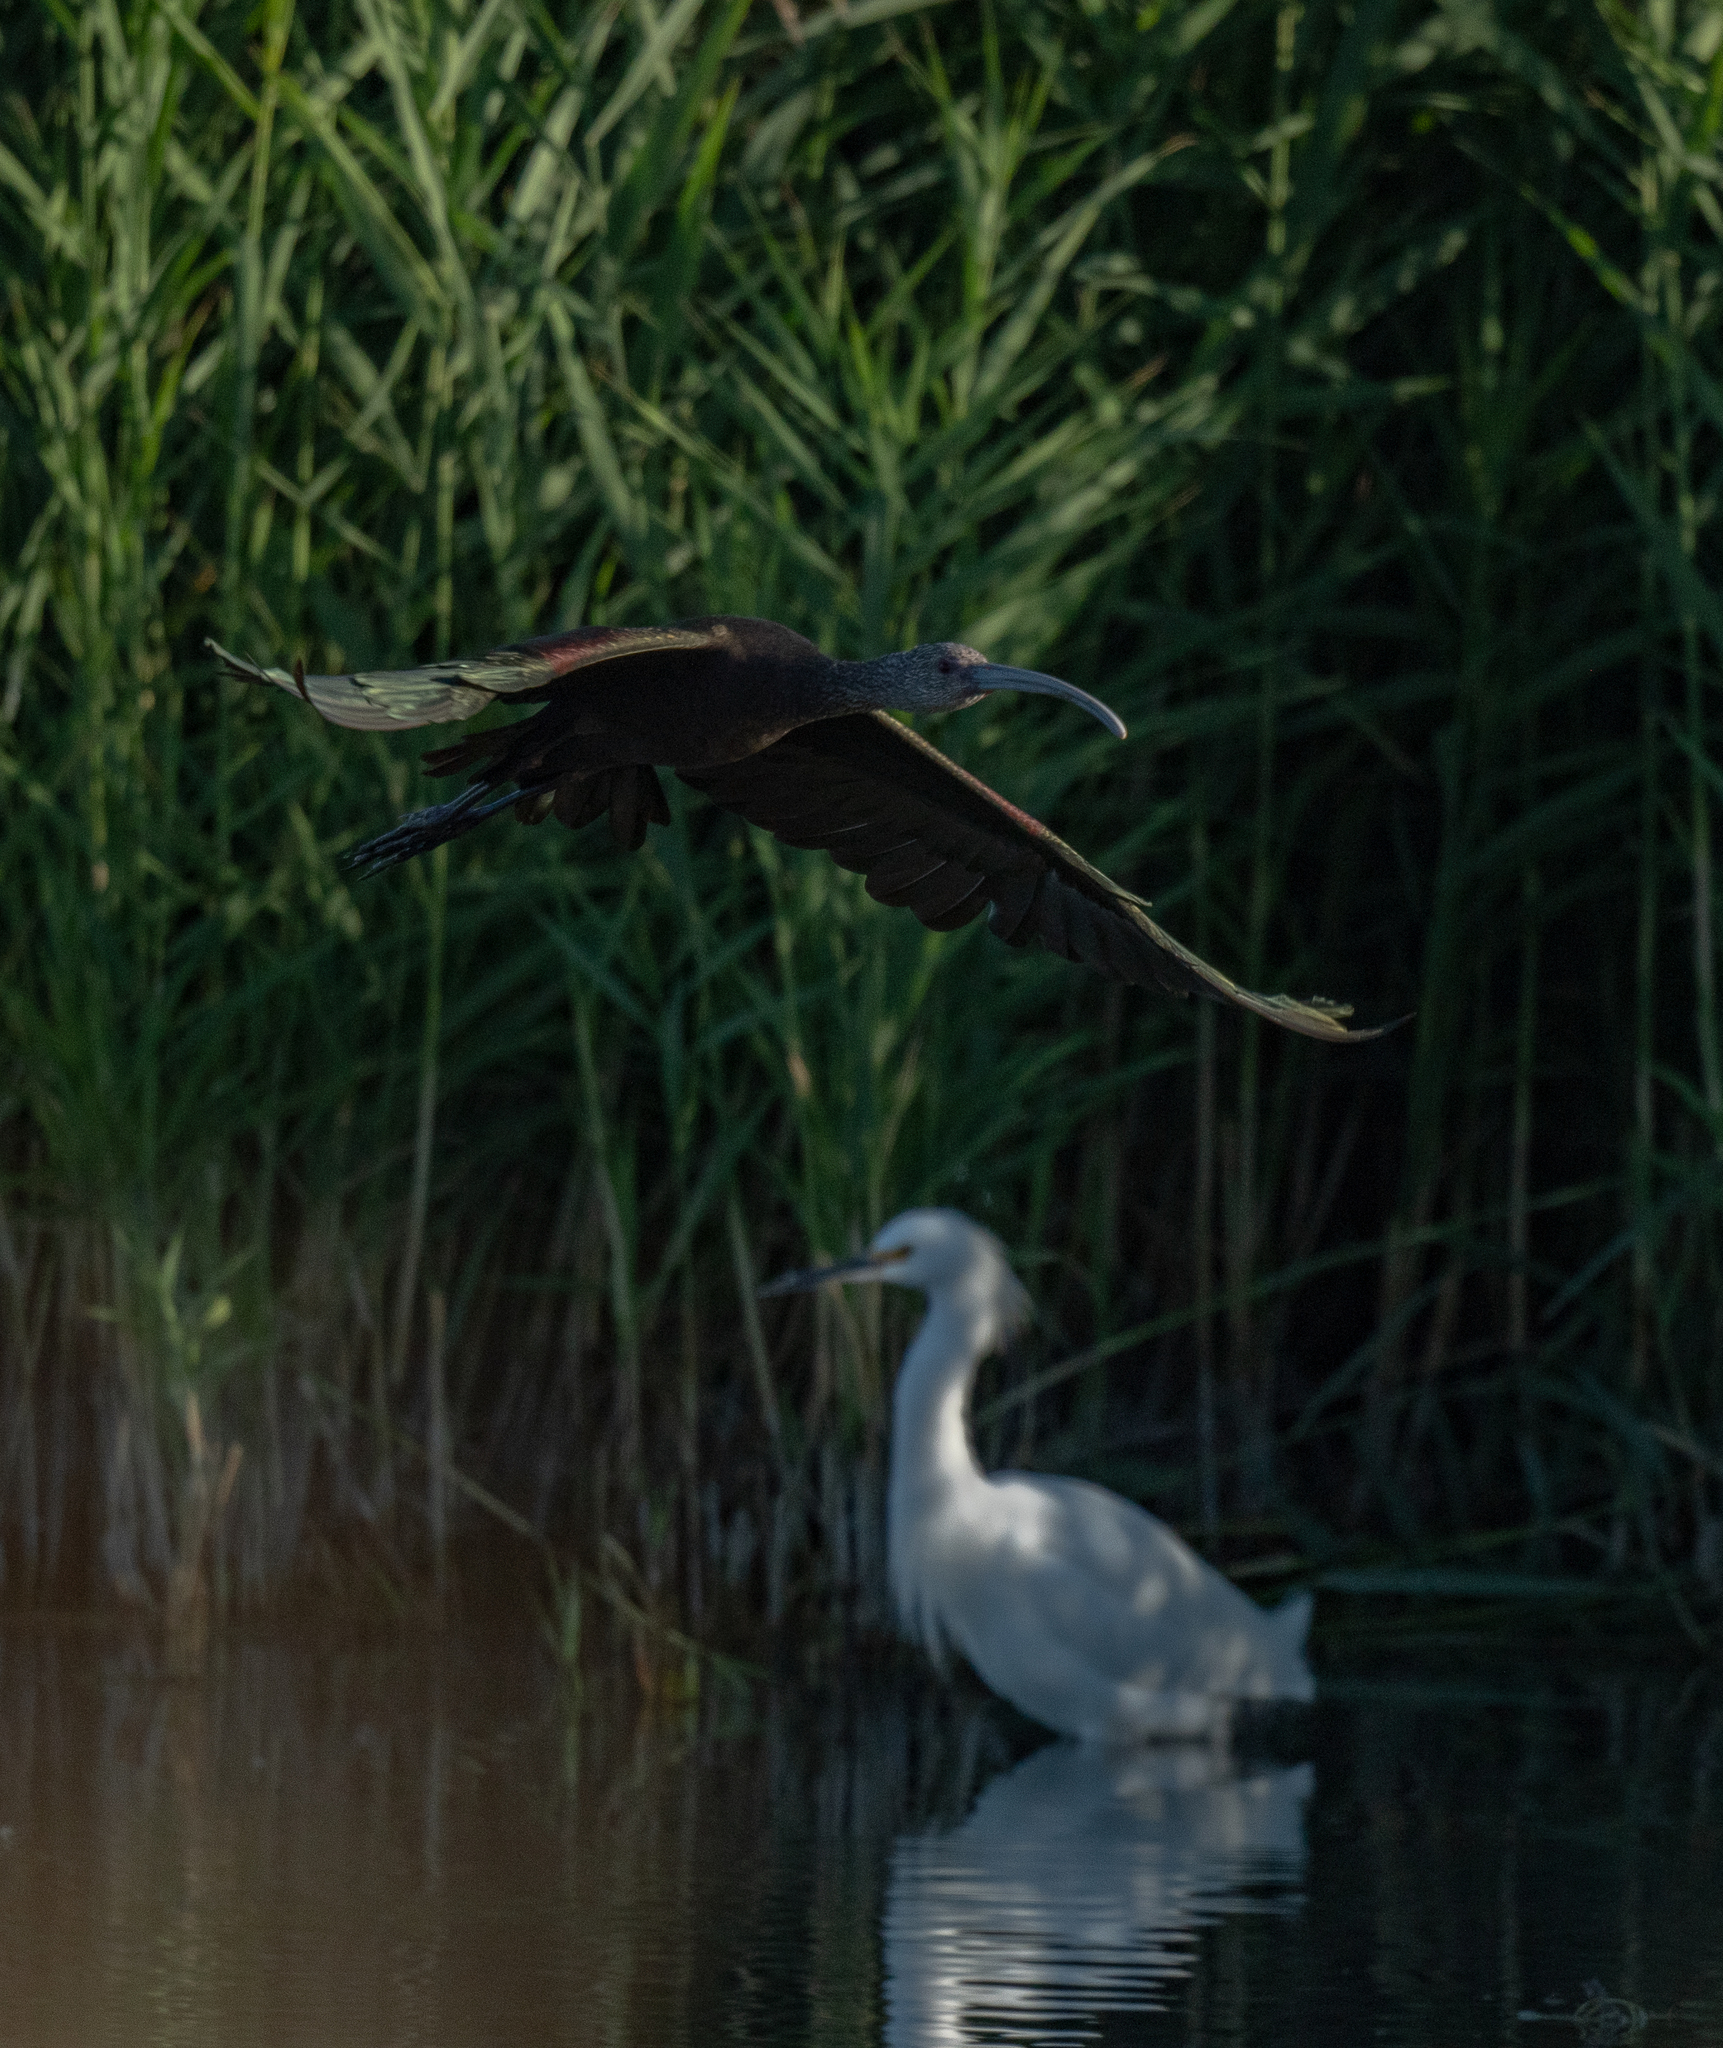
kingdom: Animalia
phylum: Chordata
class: Aves
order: Pelecaniformes
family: Threskiornithidae
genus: Plegadis
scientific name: Plegadis chihi
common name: White-faced ibis
